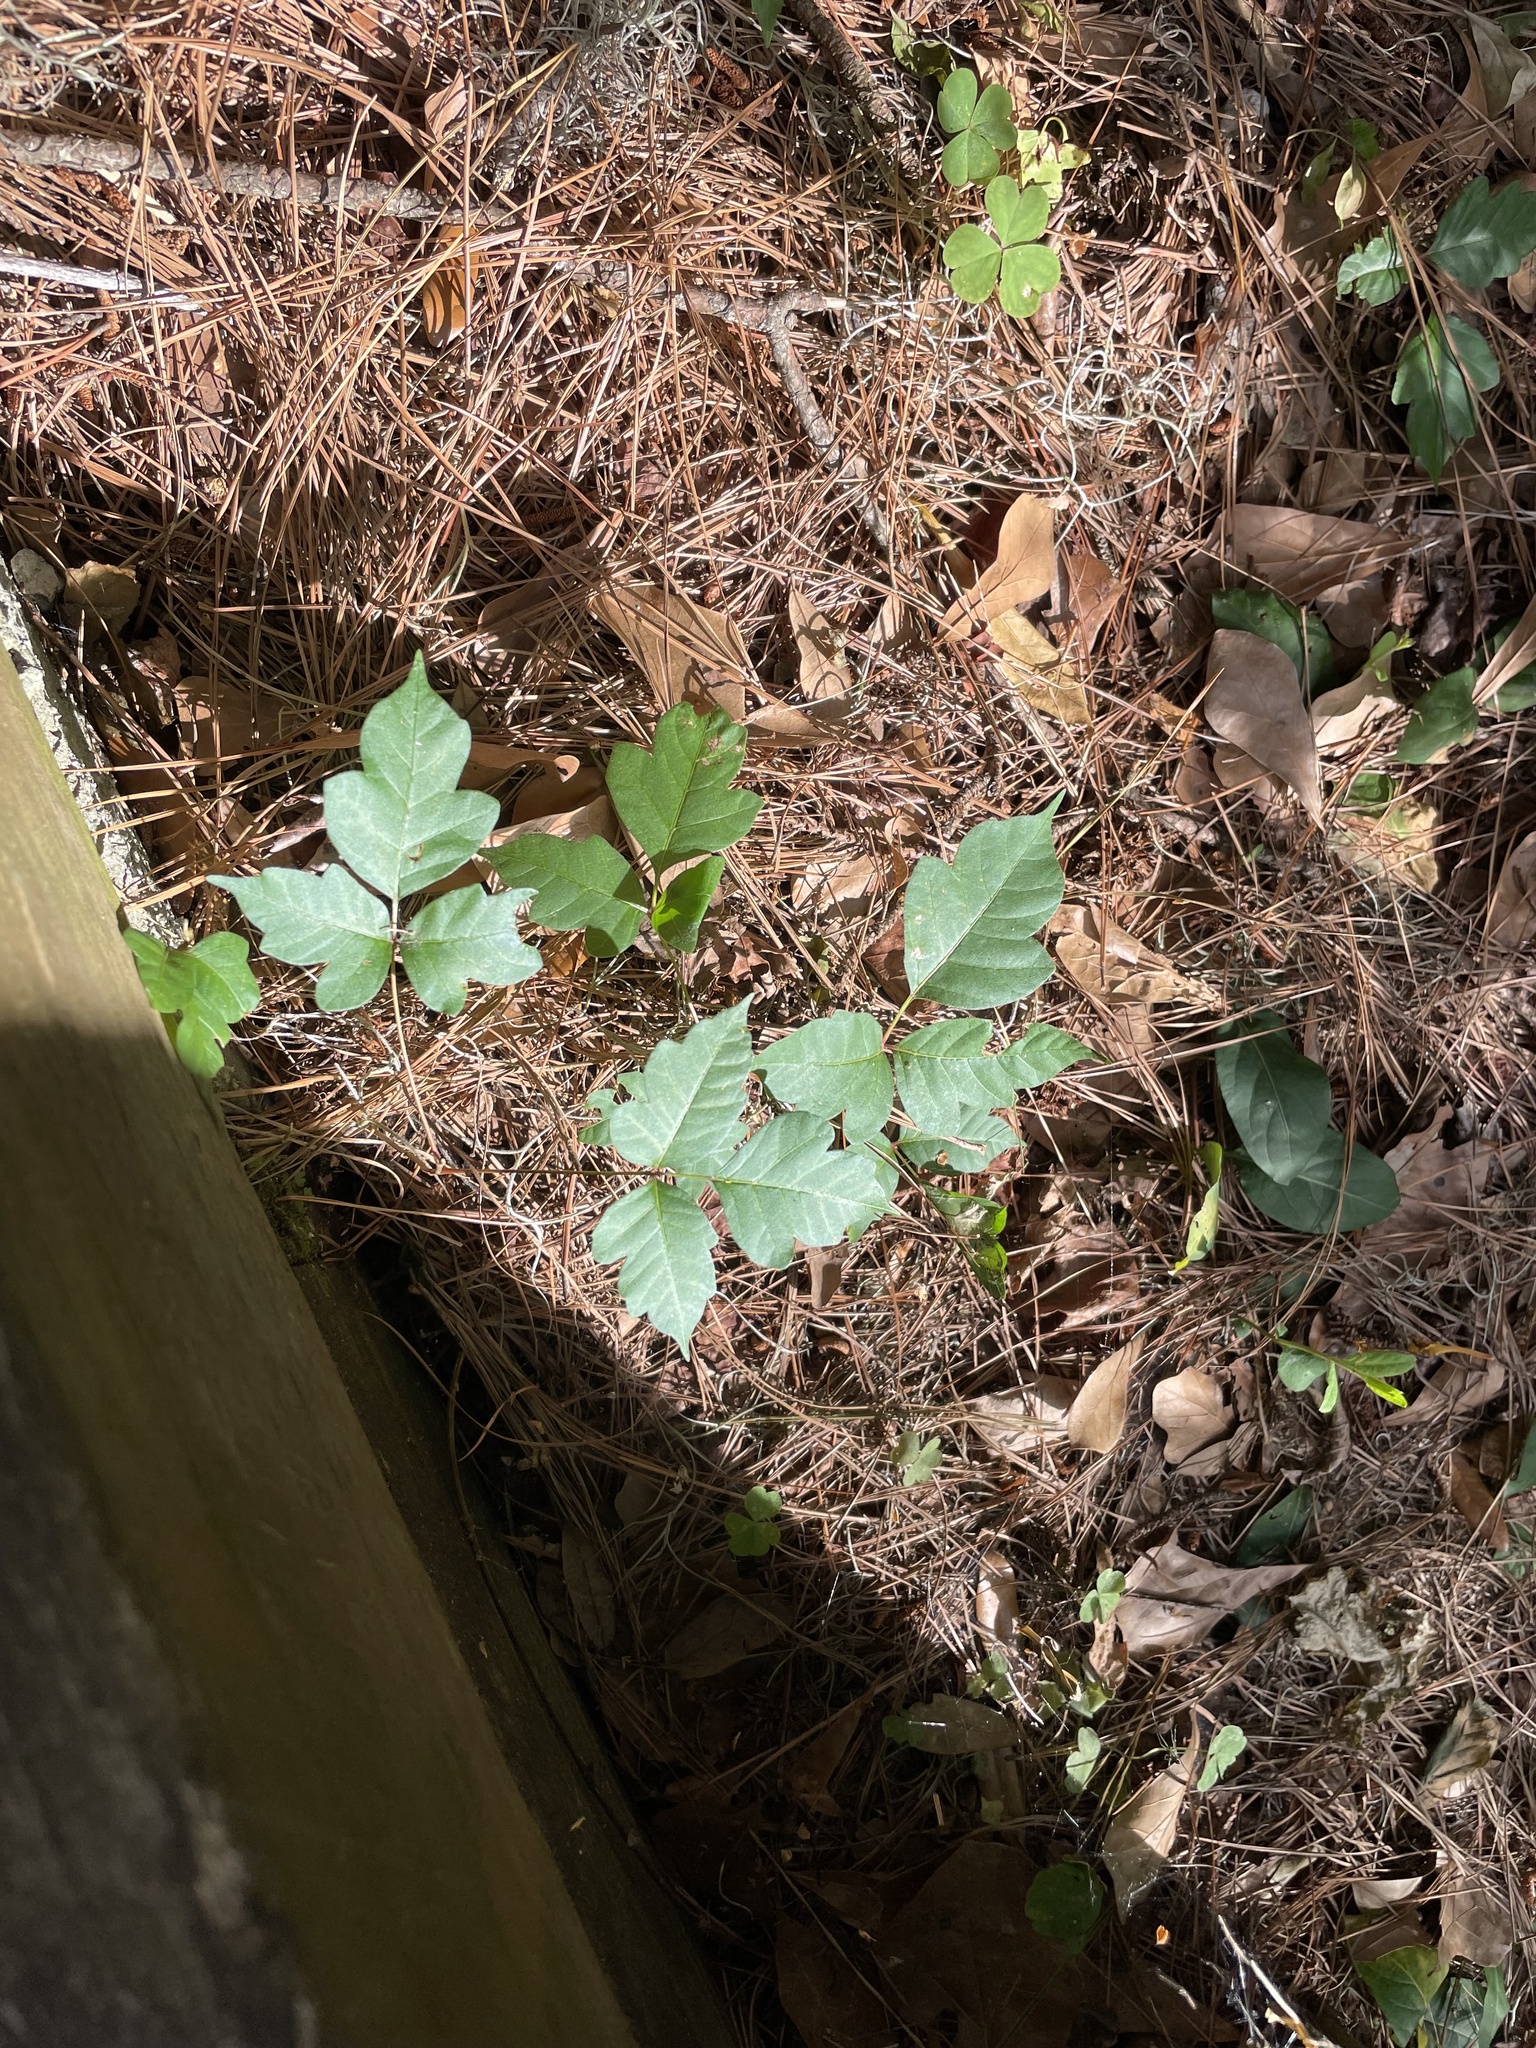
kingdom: Plantae
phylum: Tracheophyta
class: Magnoliopsida
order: Sapindales
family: Anacardiaceae
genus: Toxicodendron
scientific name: Toxicodendron radicans
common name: Poison ivy
